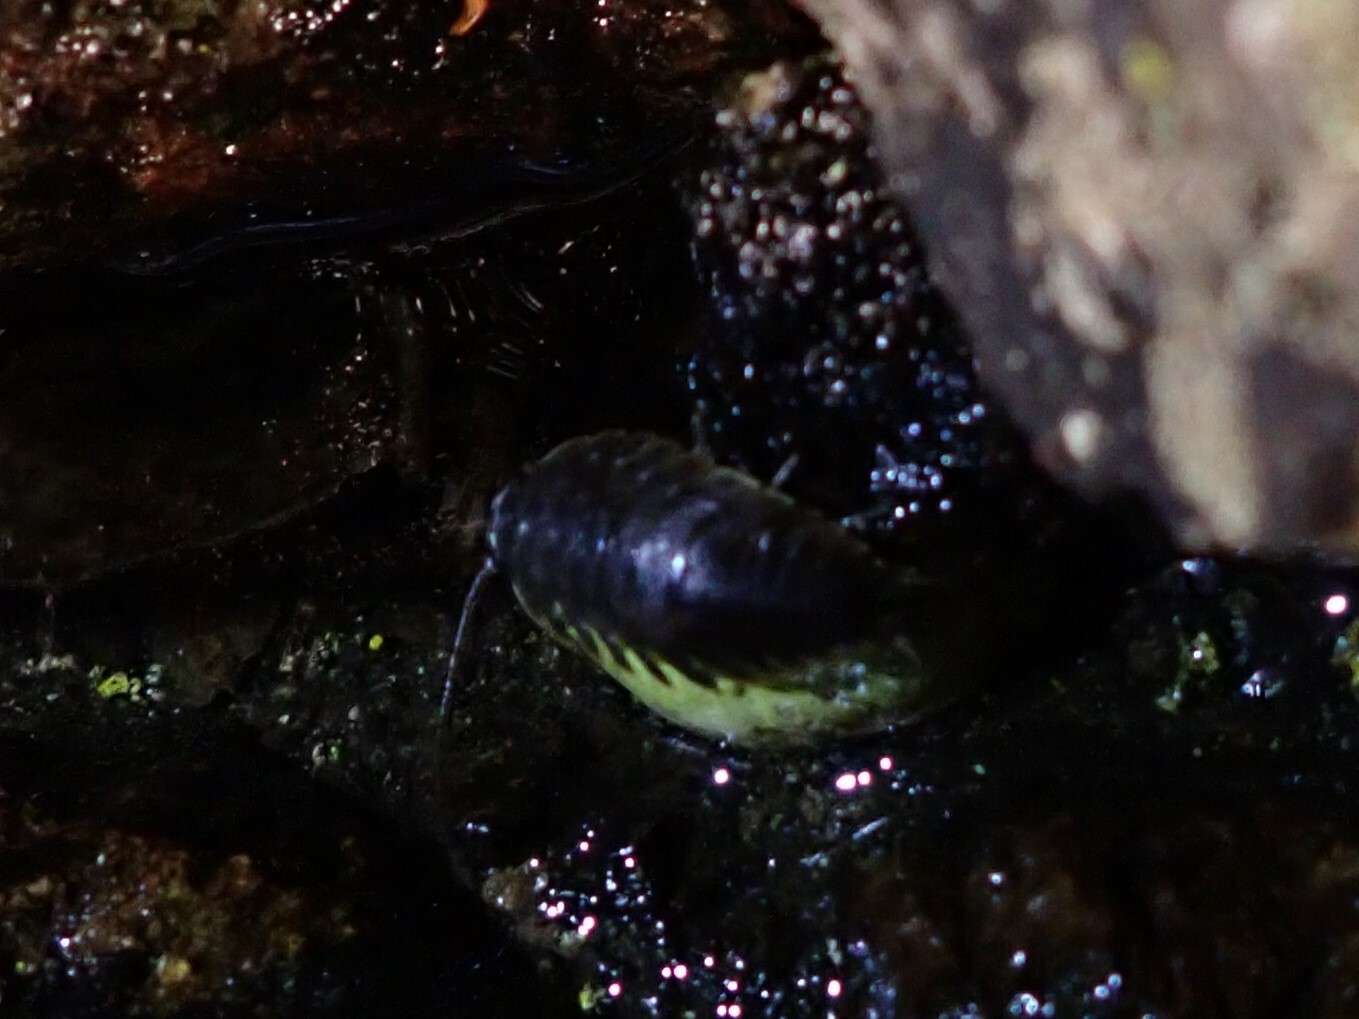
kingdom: Animalia
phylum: Arthropoda
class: Malacostraca
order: Isopoda
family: Ligiidae
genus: Ligia
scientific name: Ligia pallasii
